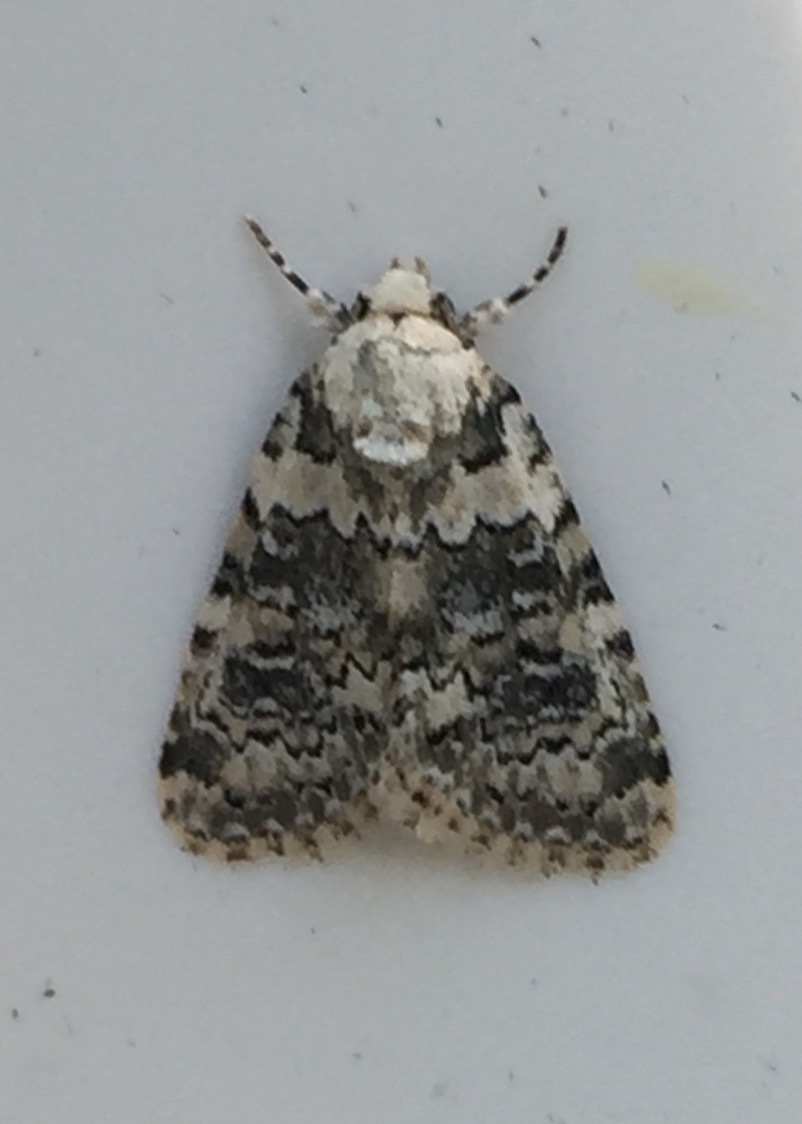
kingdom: Animalia
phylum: Arthropoda
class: Insecta
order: Lepidoptera
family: Noctuidae
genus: Bryophila
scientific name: Bryophila domestica
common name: Marbled beauty
